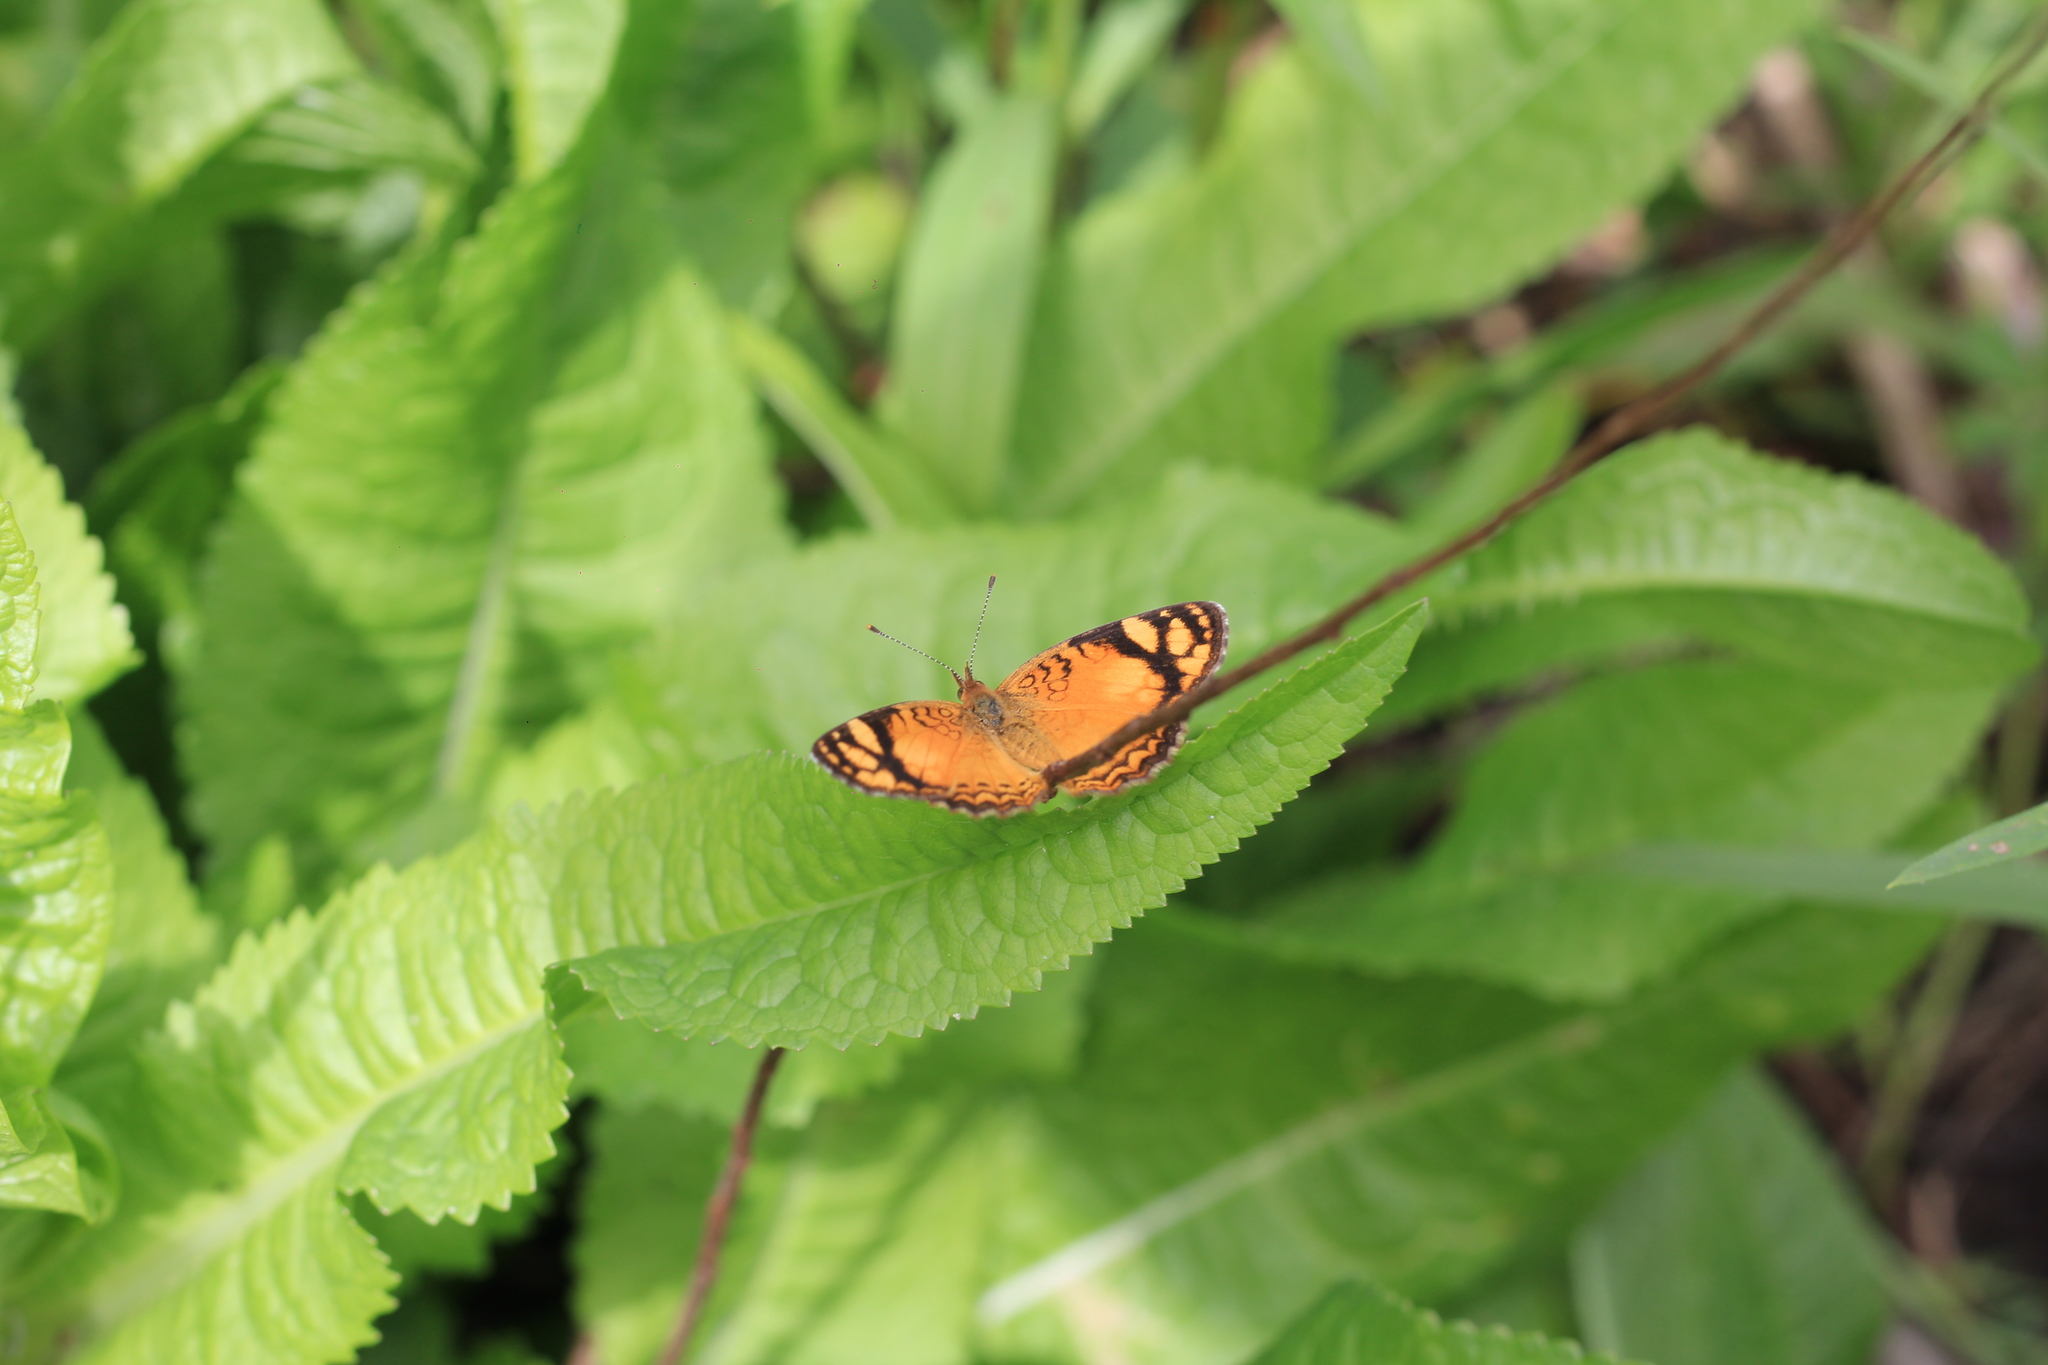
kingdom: Animalia
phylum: Arthropoda
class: Insecta
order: Lepidoptera
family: Nymphalidae
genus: Tegosa
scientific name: Tegosa orobia
